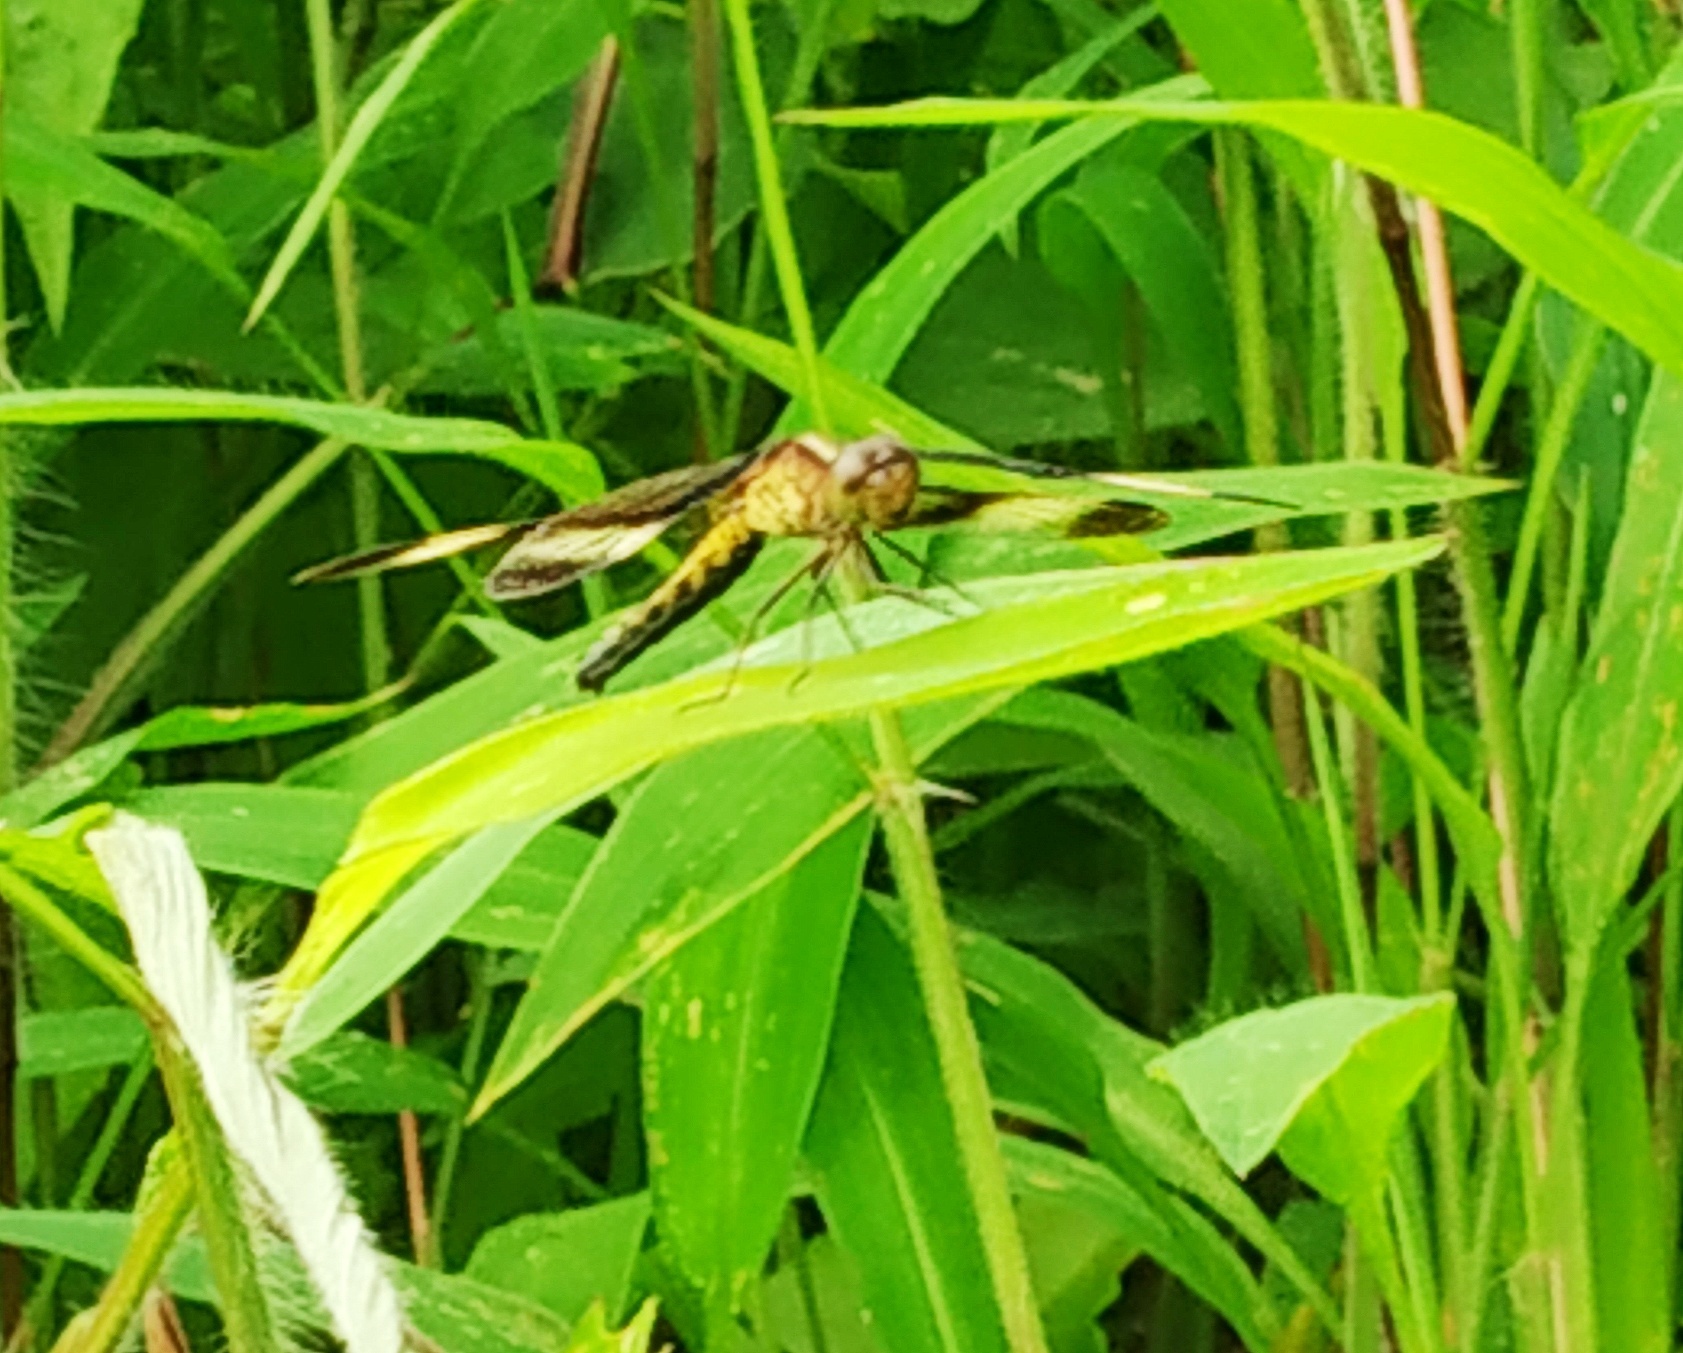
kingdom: Animalia
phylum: Arthropoda
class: Insecta
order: Odonata
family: Libellulidae
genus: Neurothemis
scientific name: Neurothemis tullia
